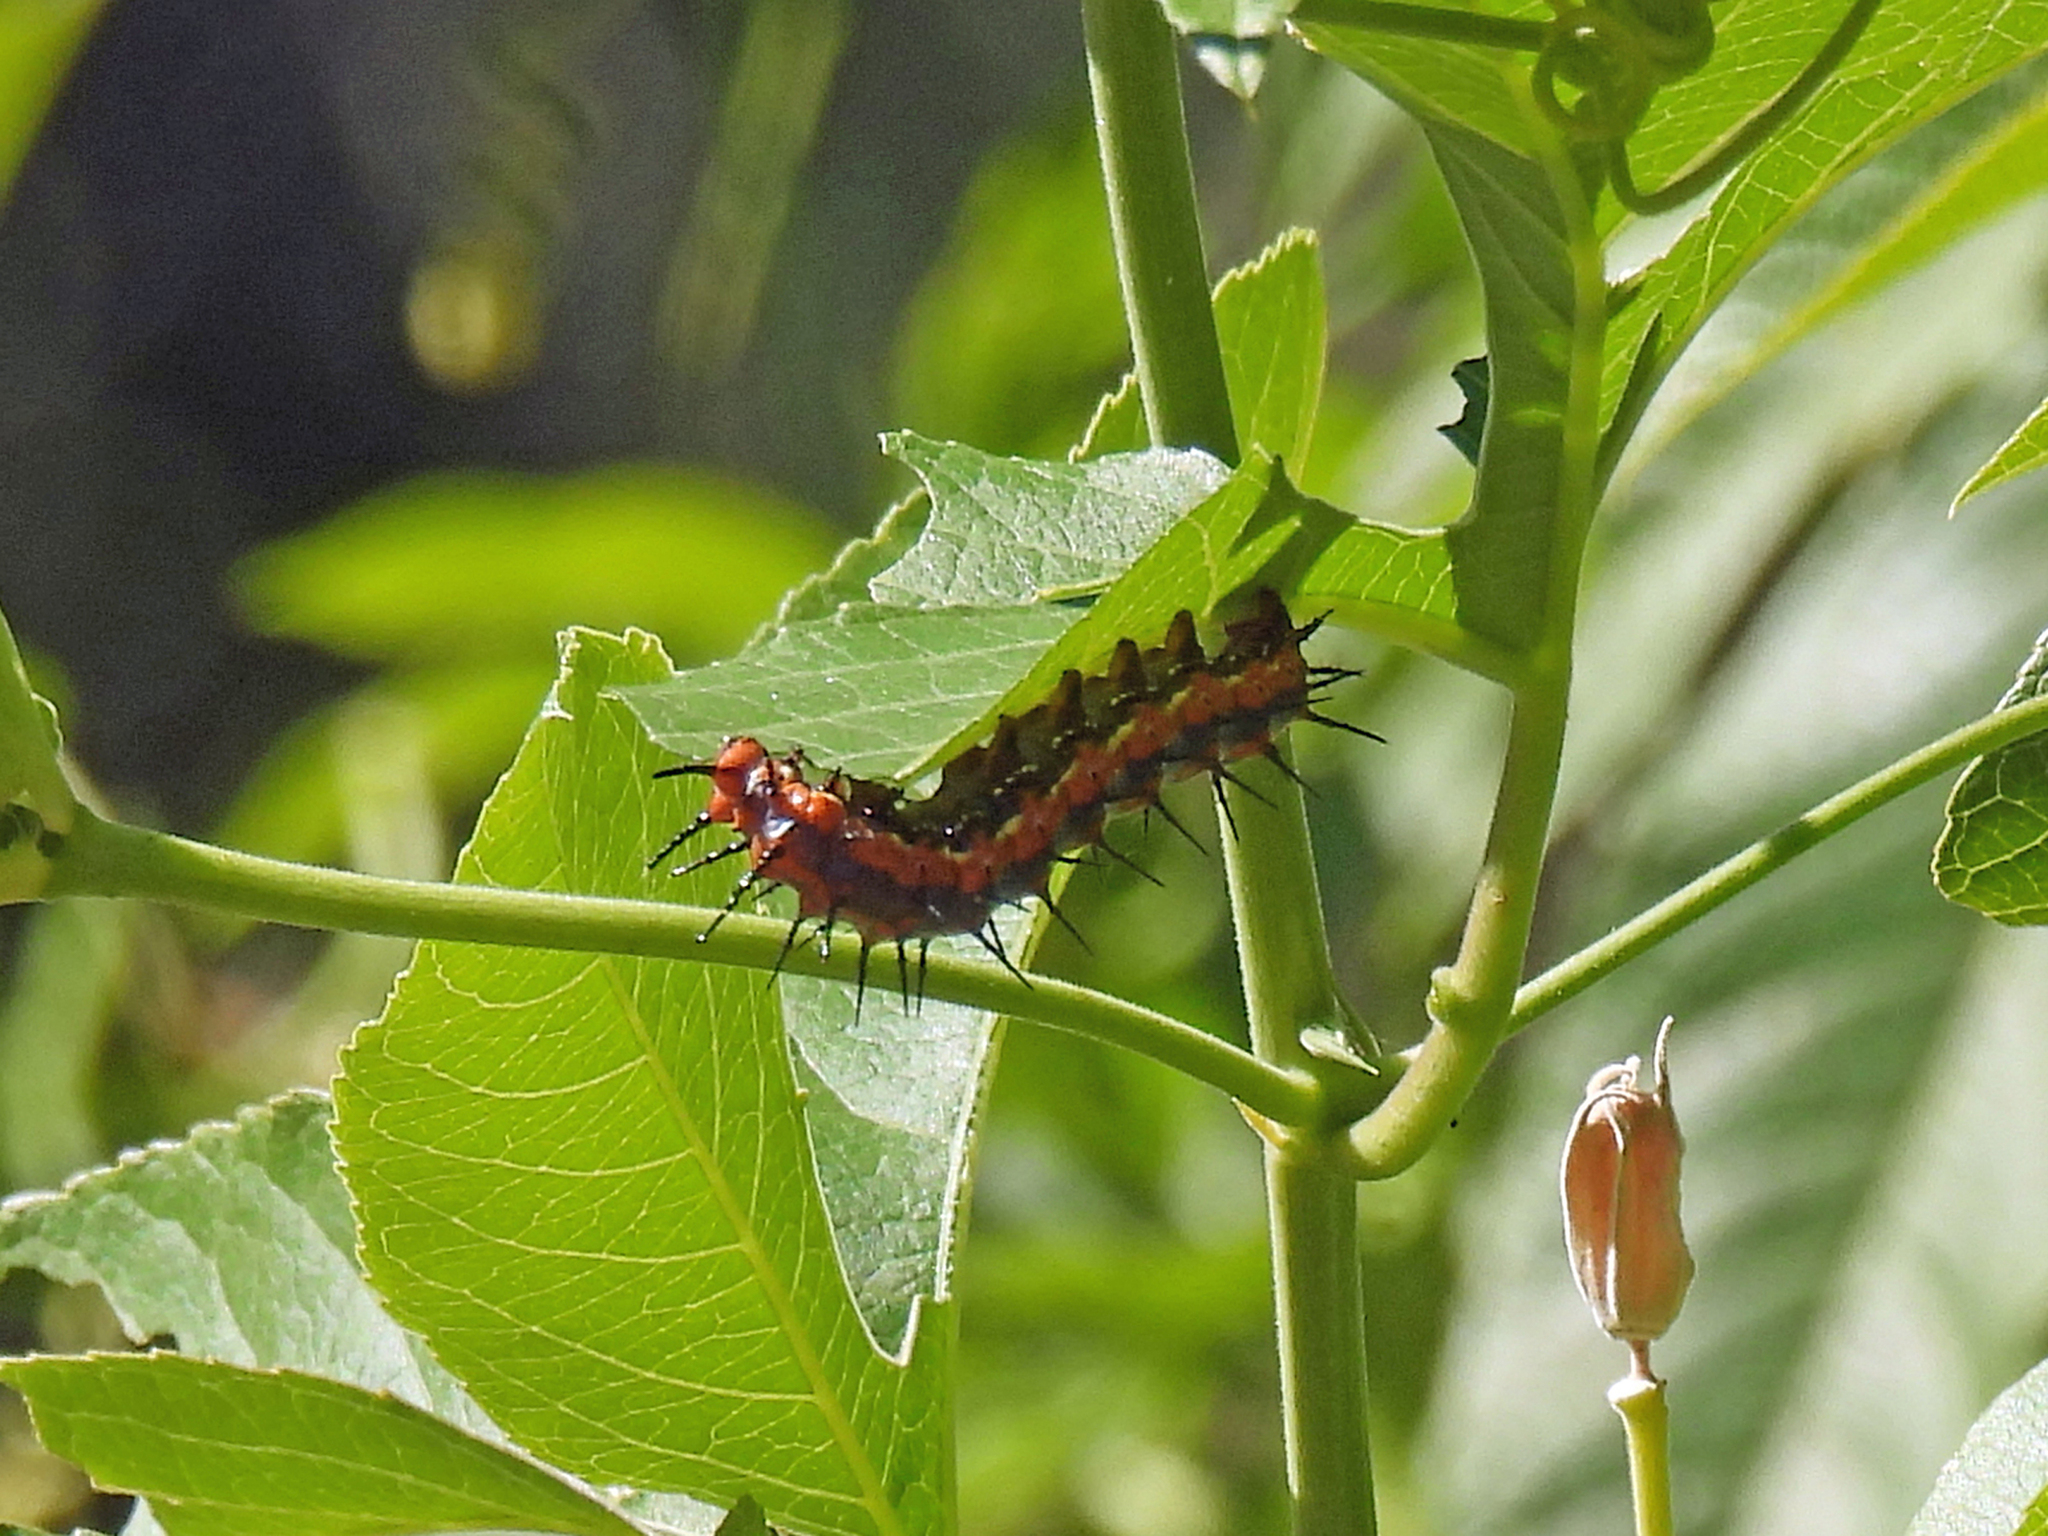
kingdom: Animalia
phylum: Arthropoda
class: Insecta
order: Lepidoptera
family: Nymphalidae
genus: Dione
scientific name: Dione vanillae
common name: Gulf fritillary
